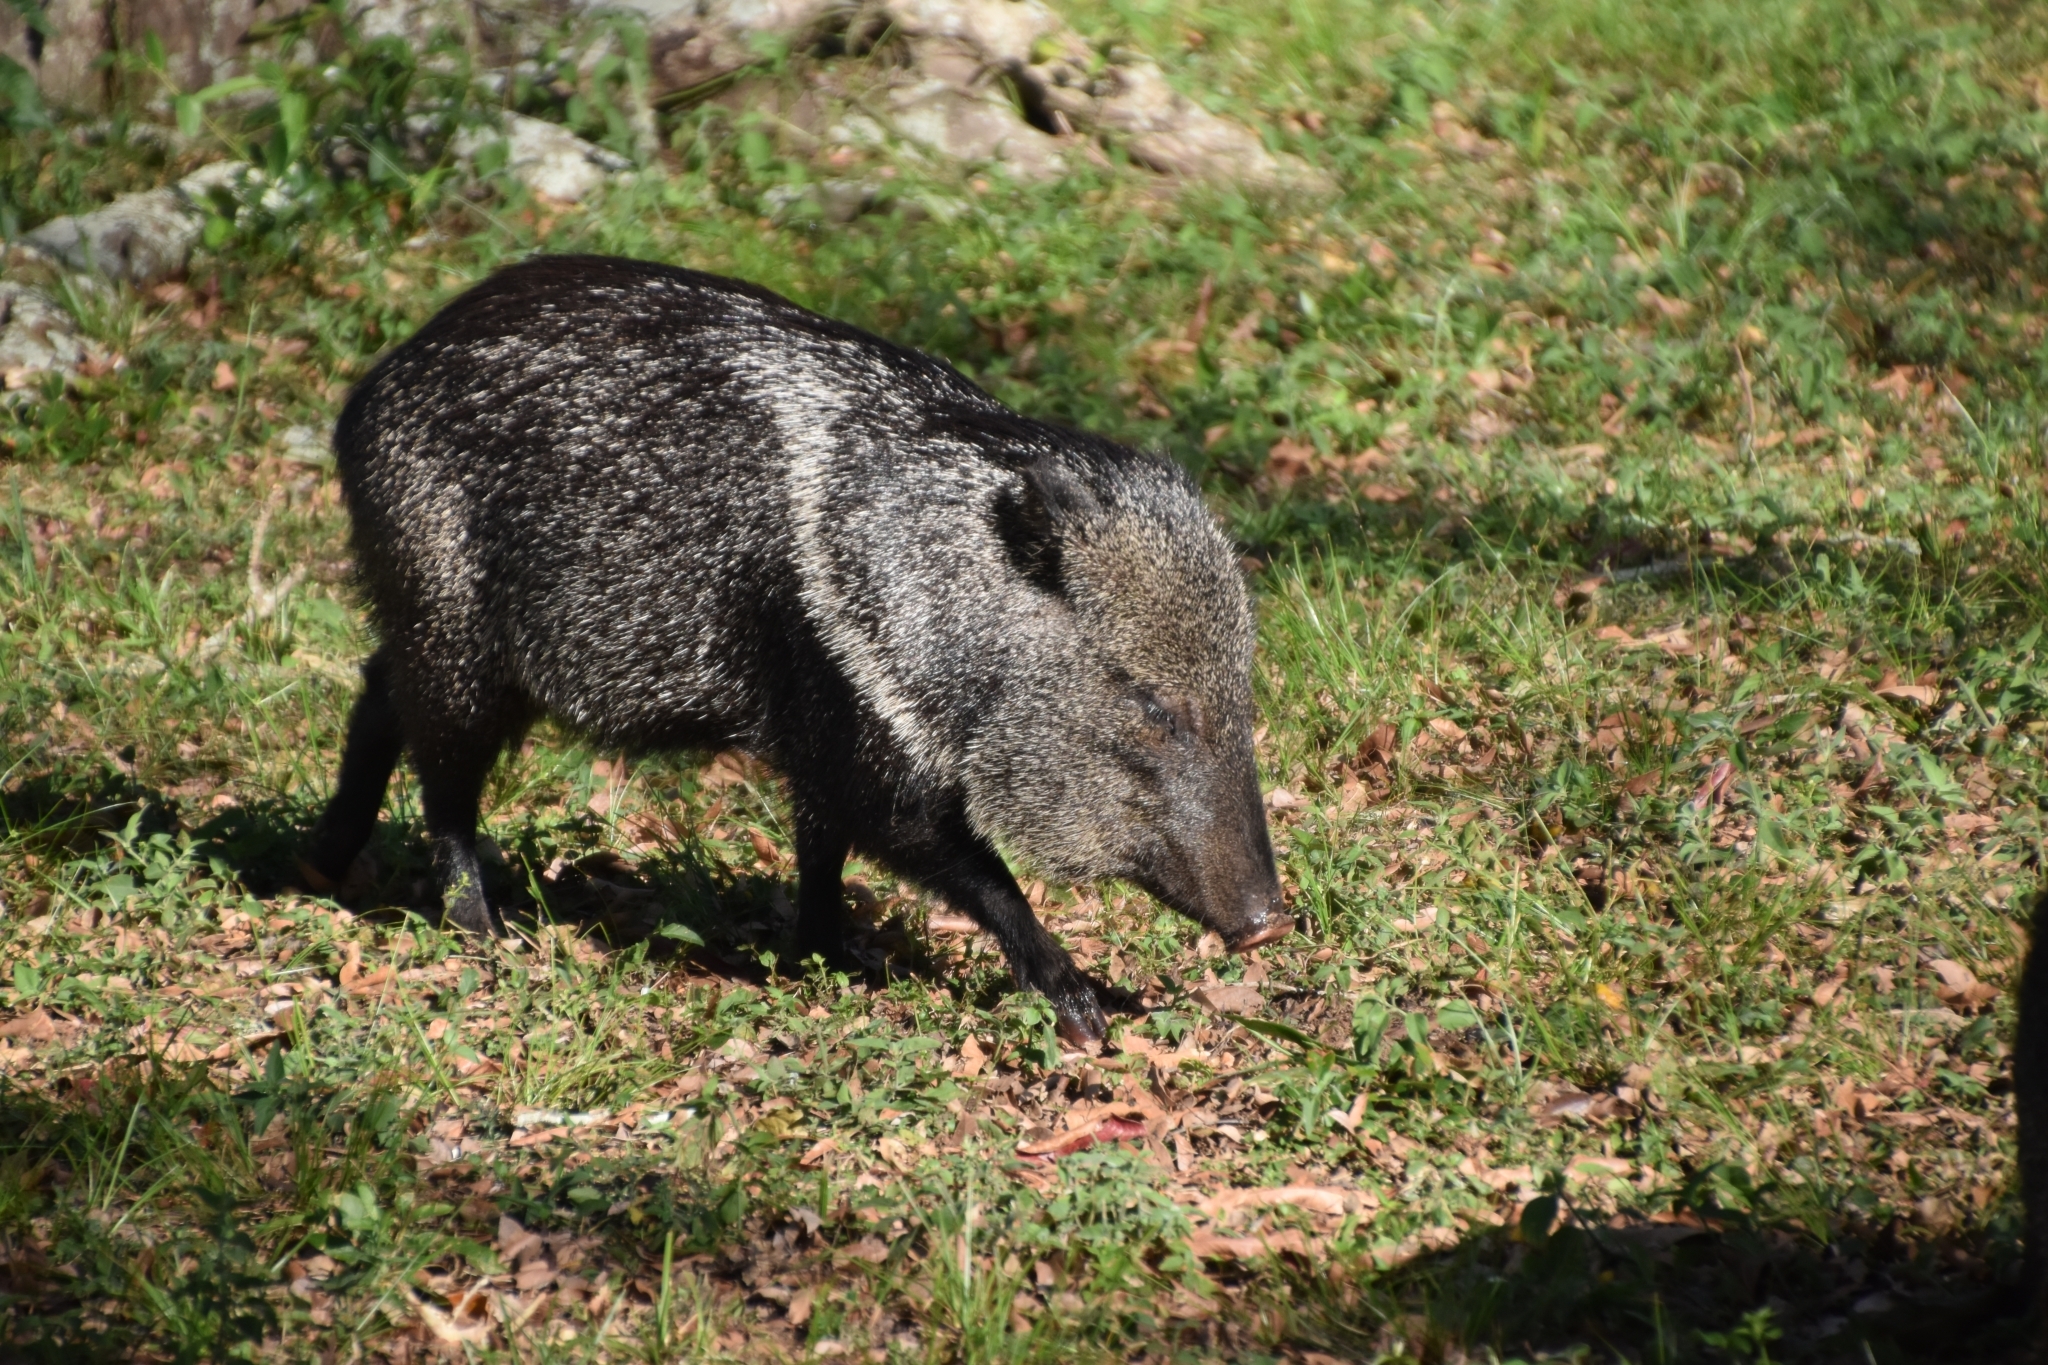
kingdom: Animalia
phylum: Chordata
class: Mammalia
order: Artiodactyla
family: Tayassuidae
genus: Pecari
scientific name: Pecari tajacu
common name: Collared peccary
